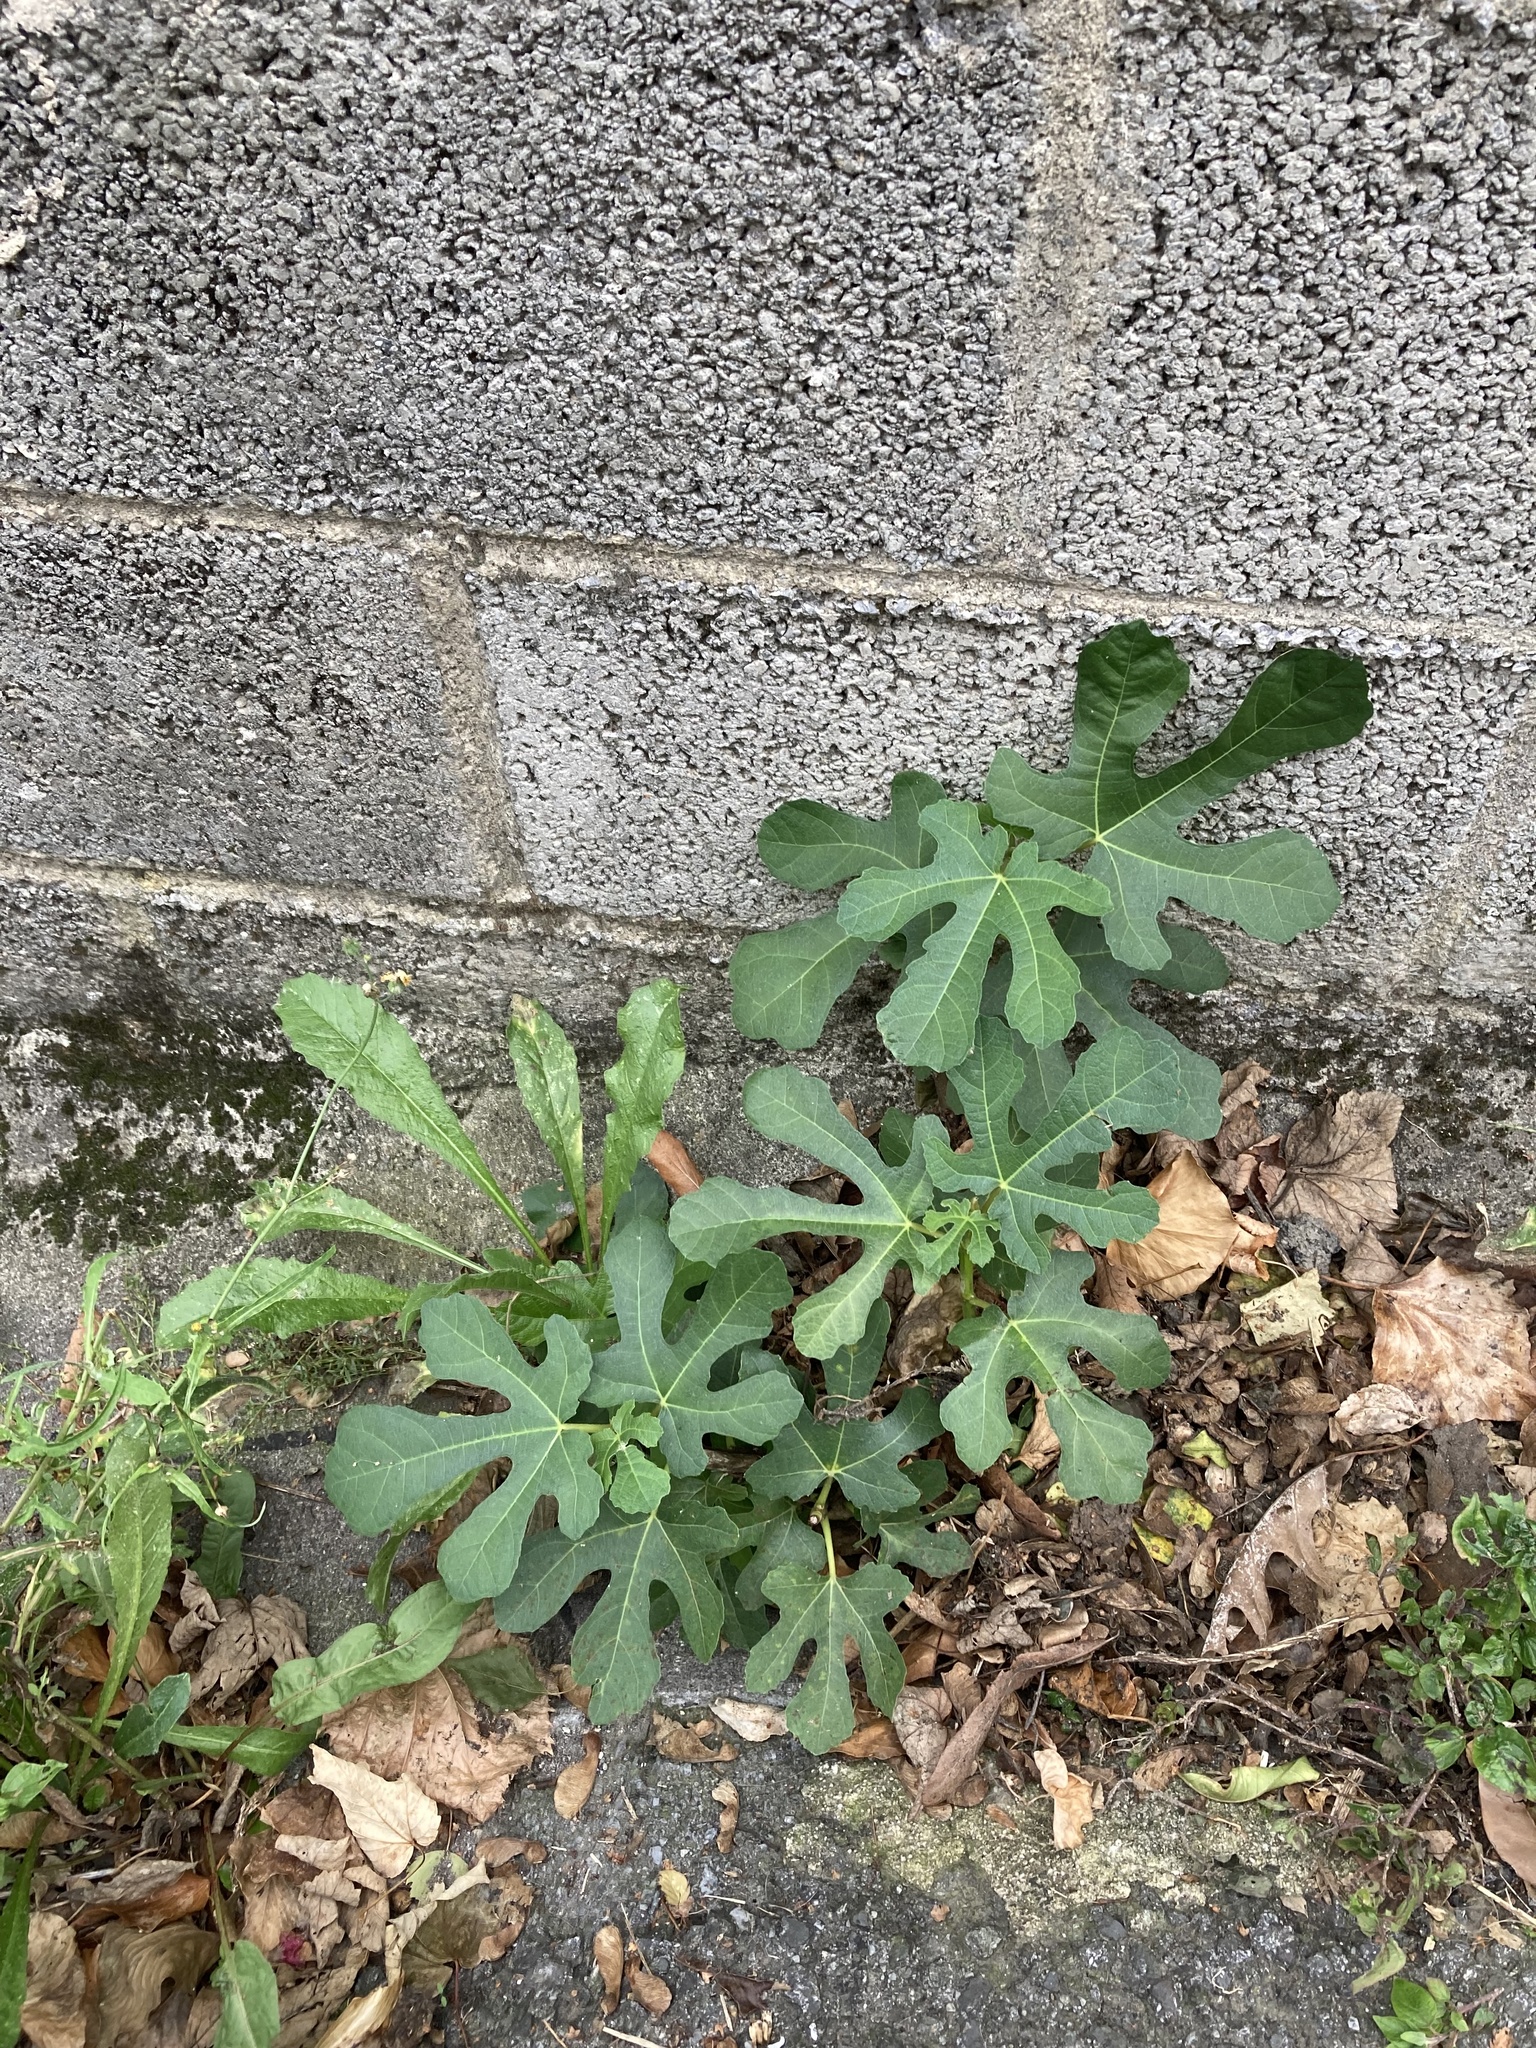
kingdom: Plantae
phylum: Tracheophyta
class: Magnoliopsida
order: Rosales
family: Moraceae
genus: Ficus
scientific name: Ficus carica
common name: Fig
